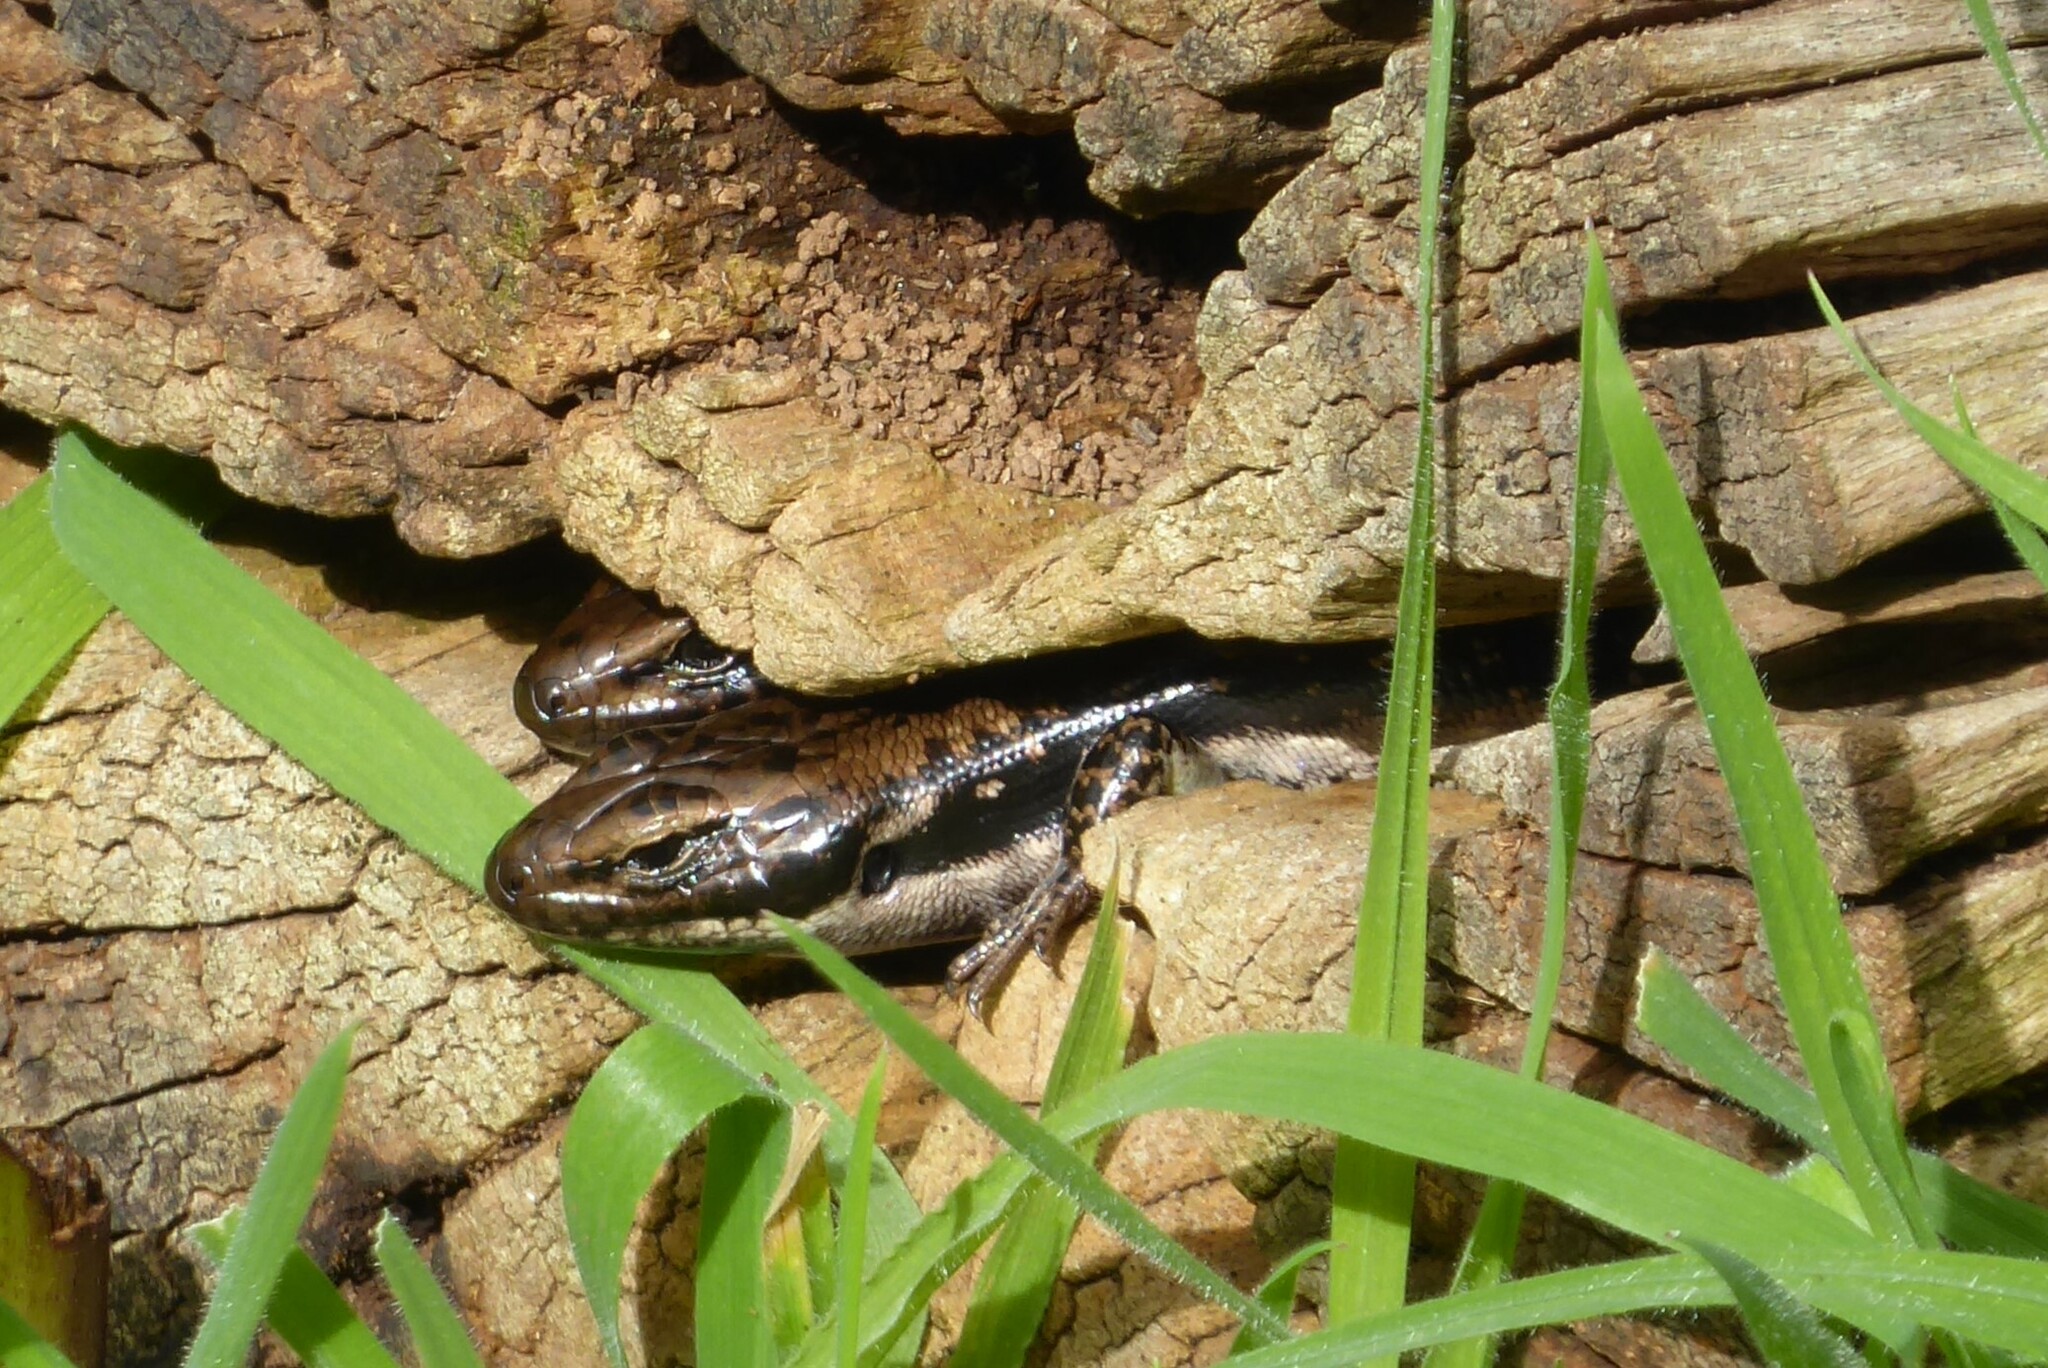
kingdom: Animalia
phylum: Chordata
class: Squamata
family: Scincidae
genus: Eulamprus
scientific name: Eulamprus tympanum
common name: Cool-temperate water-skink
